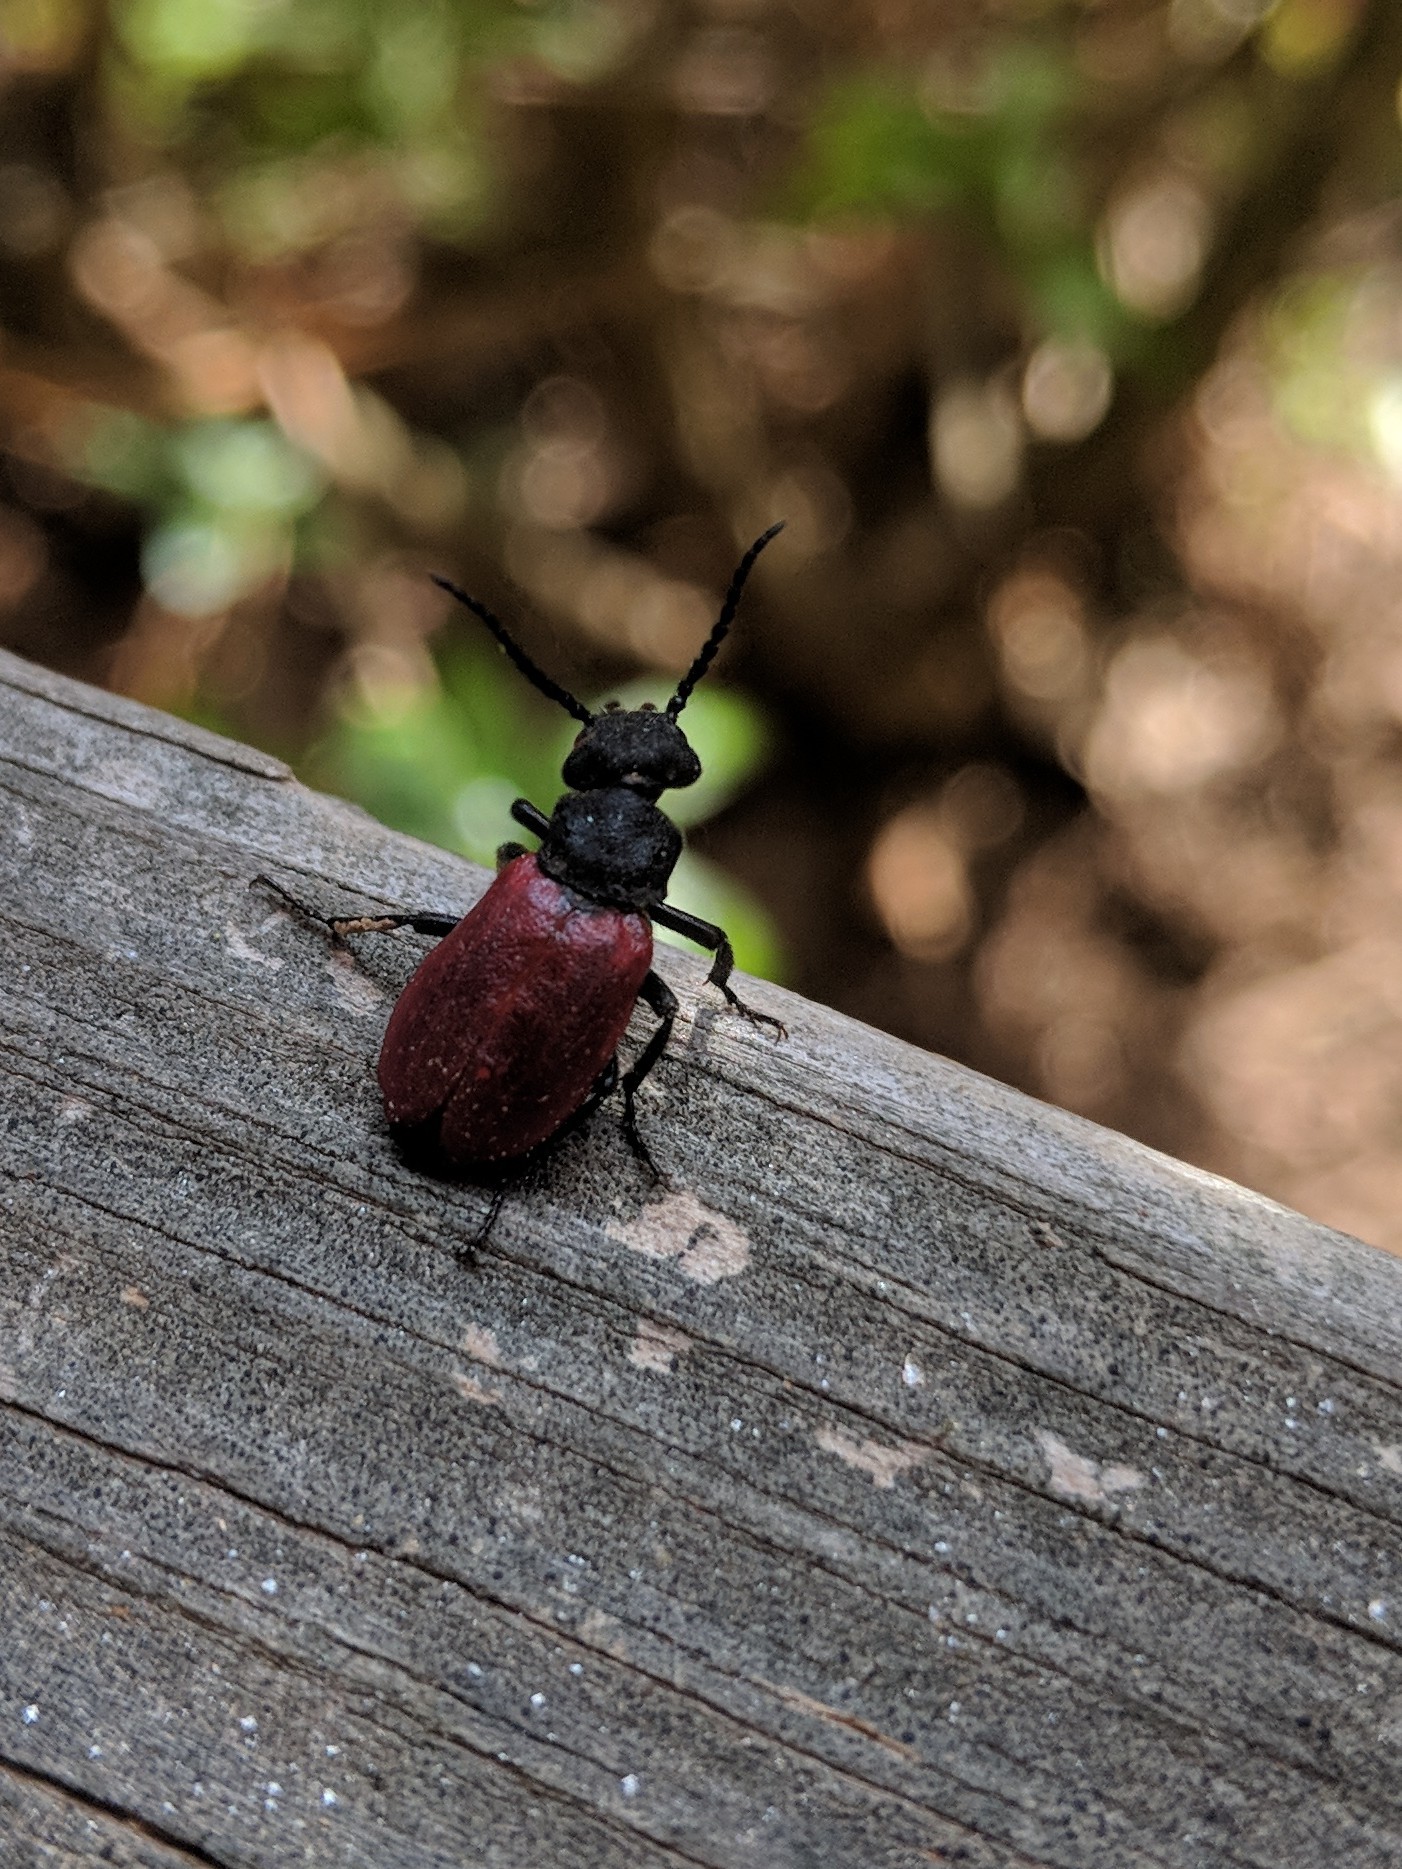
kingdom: Animalia
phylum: Arthropoda
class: Insecta
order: Coleoptera
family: Meloidae
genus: Tricrania
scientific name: Tricrania sanguinipennis
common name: Blood-winged blister beetle
